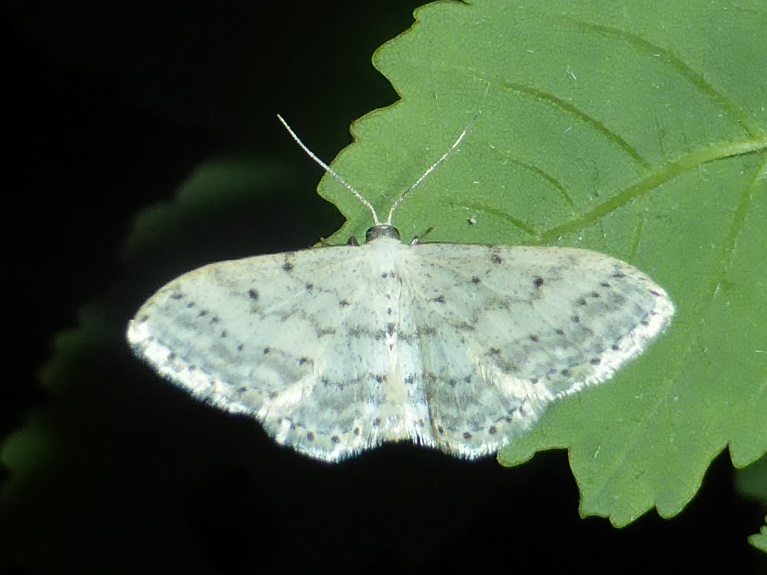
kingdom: Animalia
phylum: Arthropoda
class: Insecta
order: Lepidoptera
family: Geometridae
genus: Idaea
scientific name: Idaea seriata
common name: Small dusty wave
